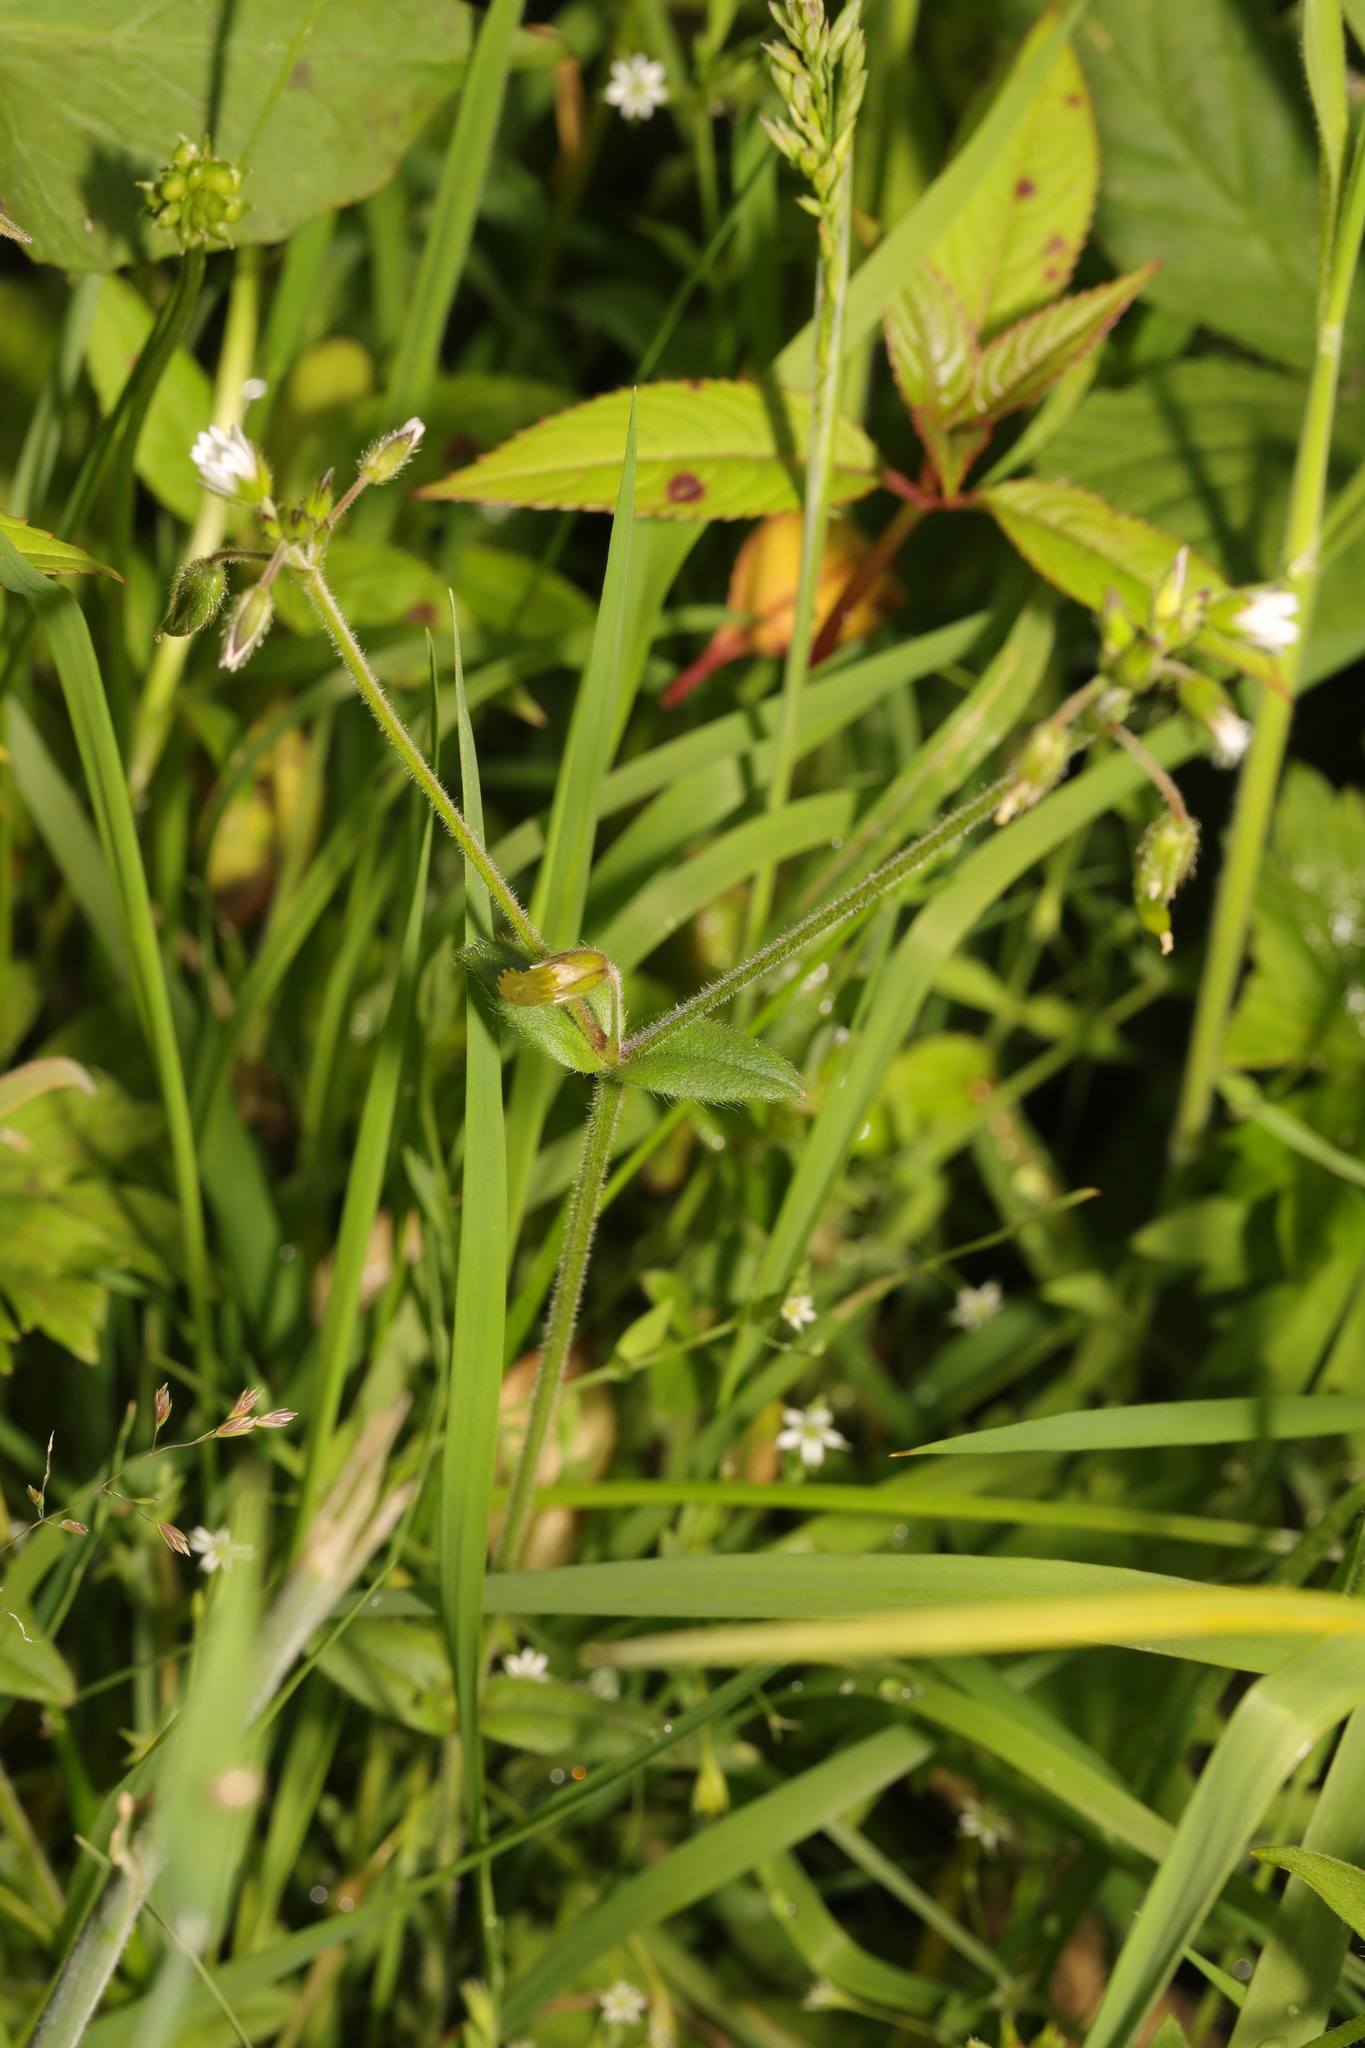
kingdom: Plantae
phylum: Tracheophyta
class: Magnoliopsida
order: Caryophyllales
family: Caryophyllaceae
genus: Cerastium
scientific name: Cerastium fontanum
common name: Common mouse-ear
